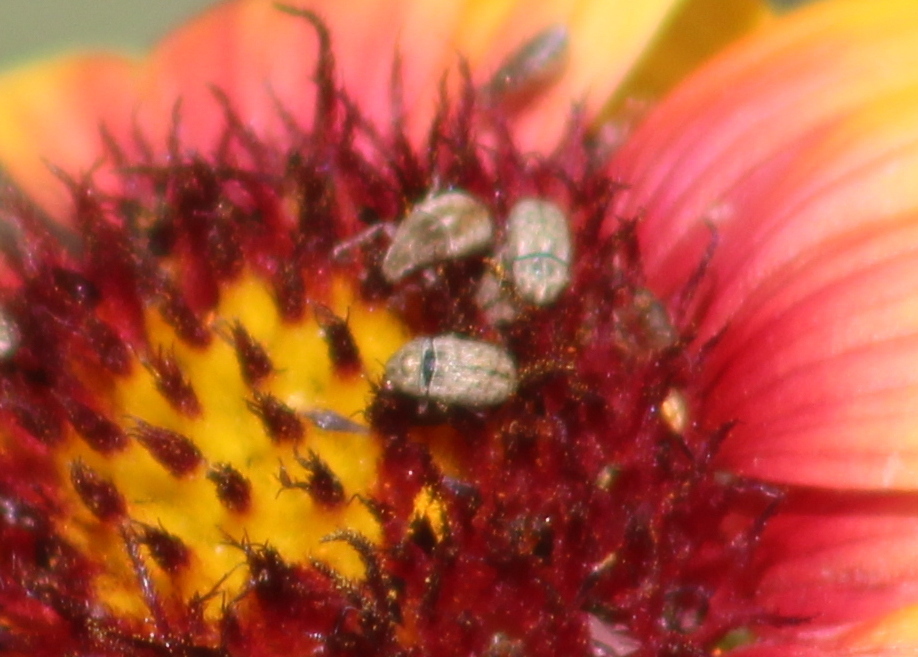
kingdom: Animalia
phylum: Arthropoda
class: Insecta
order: Coleoptera
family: Anthribidae
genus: Trigonorhinus
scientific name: Trigonorhinus limbatus
